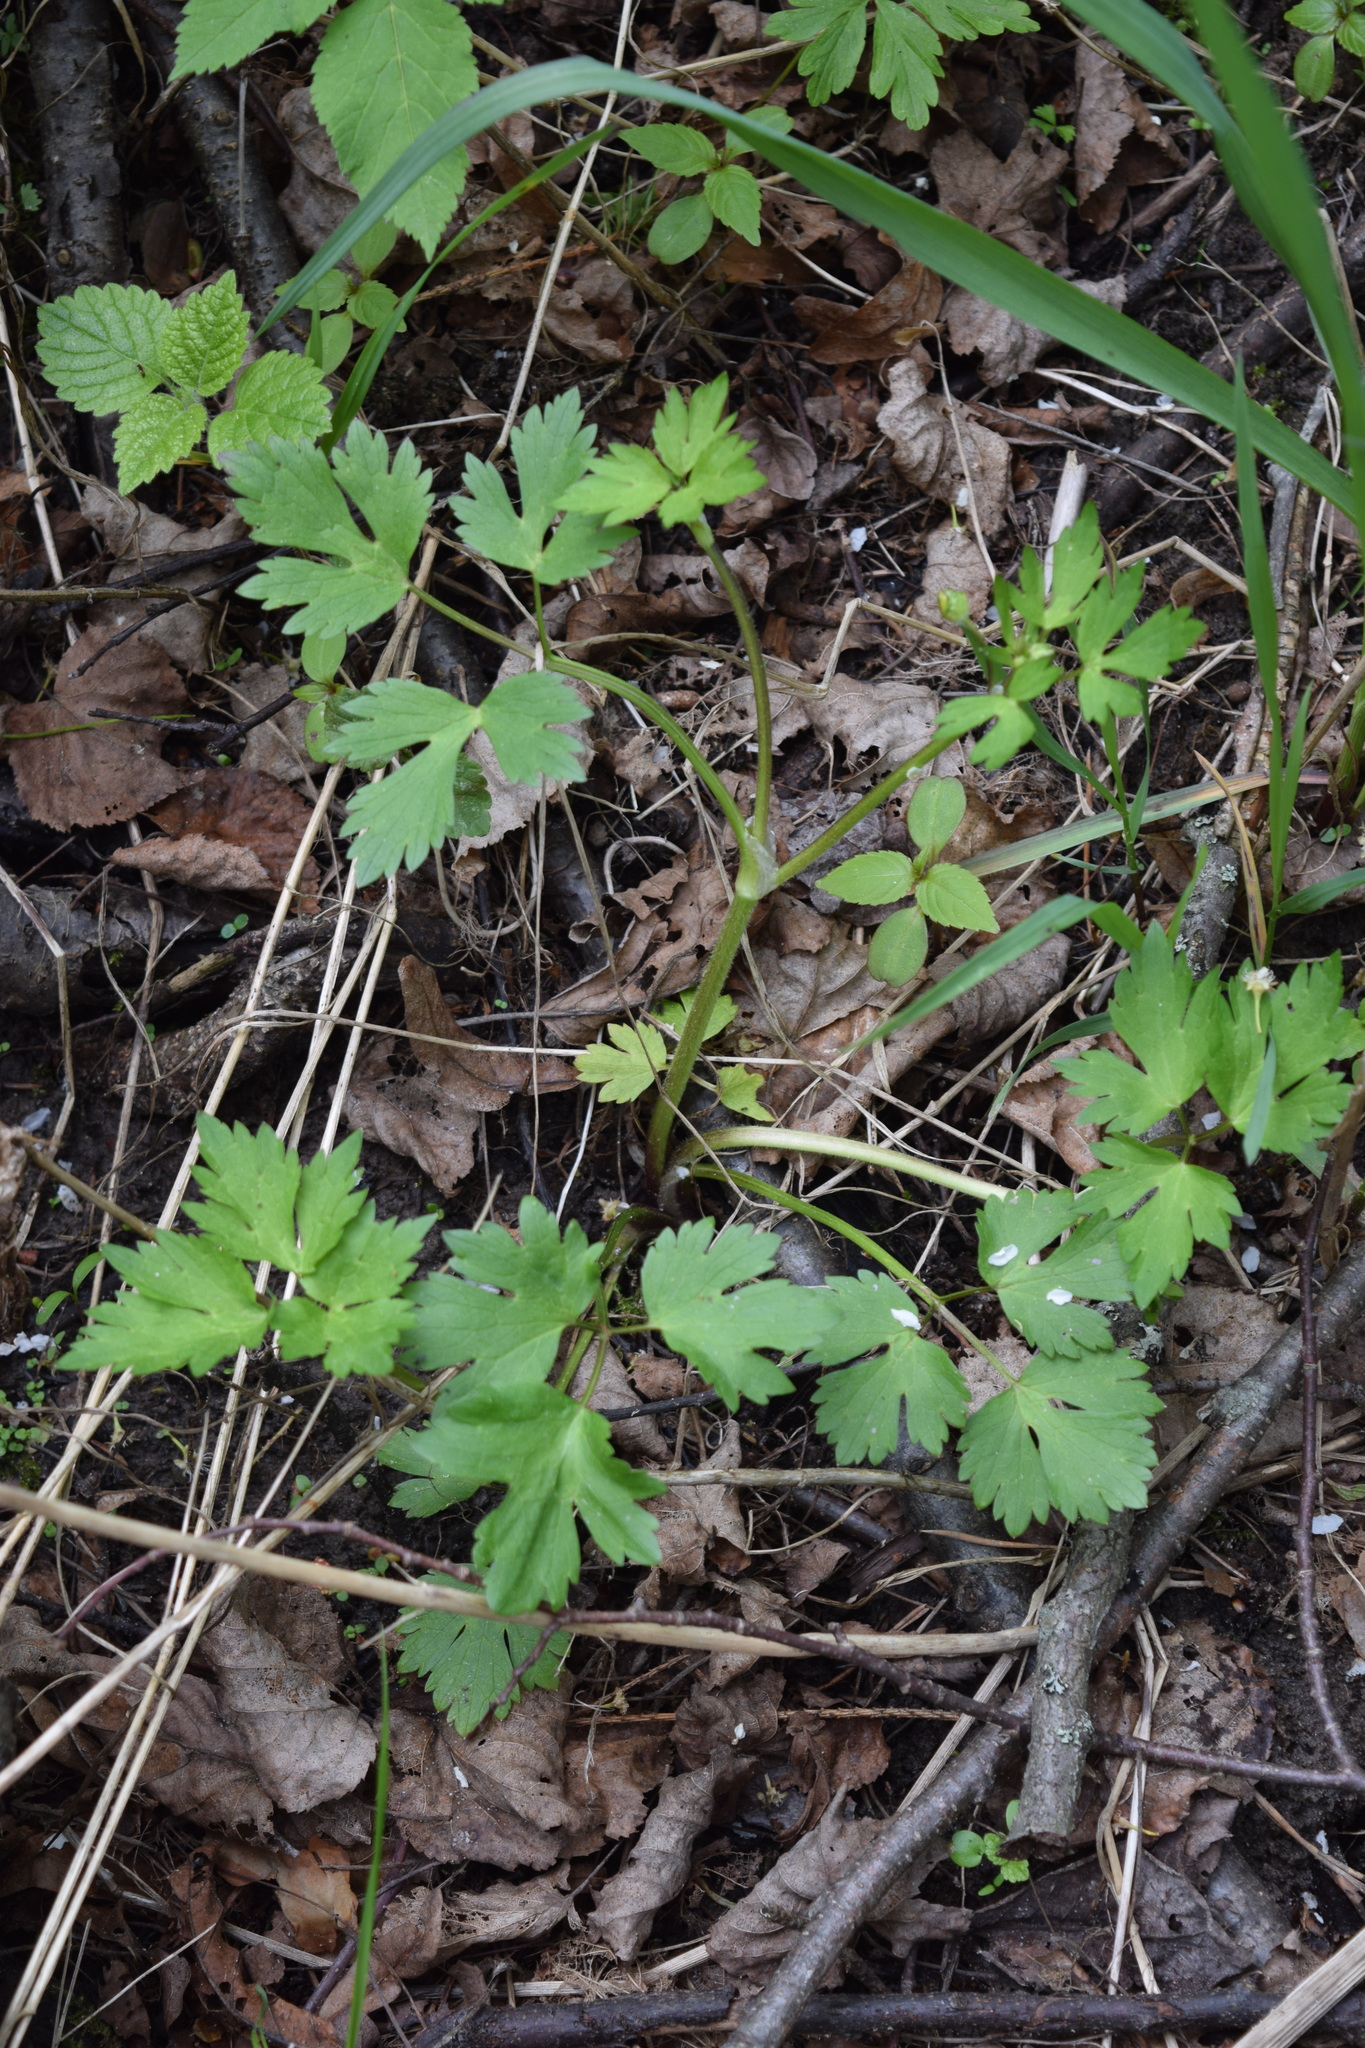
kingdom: Plantae
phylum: Tracheophyta
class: Magnoliopsida
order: Ranunculales
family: Ranunculaceae
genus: Ranunculus
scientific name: Ranunculus repens
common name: Creeping buttercup
